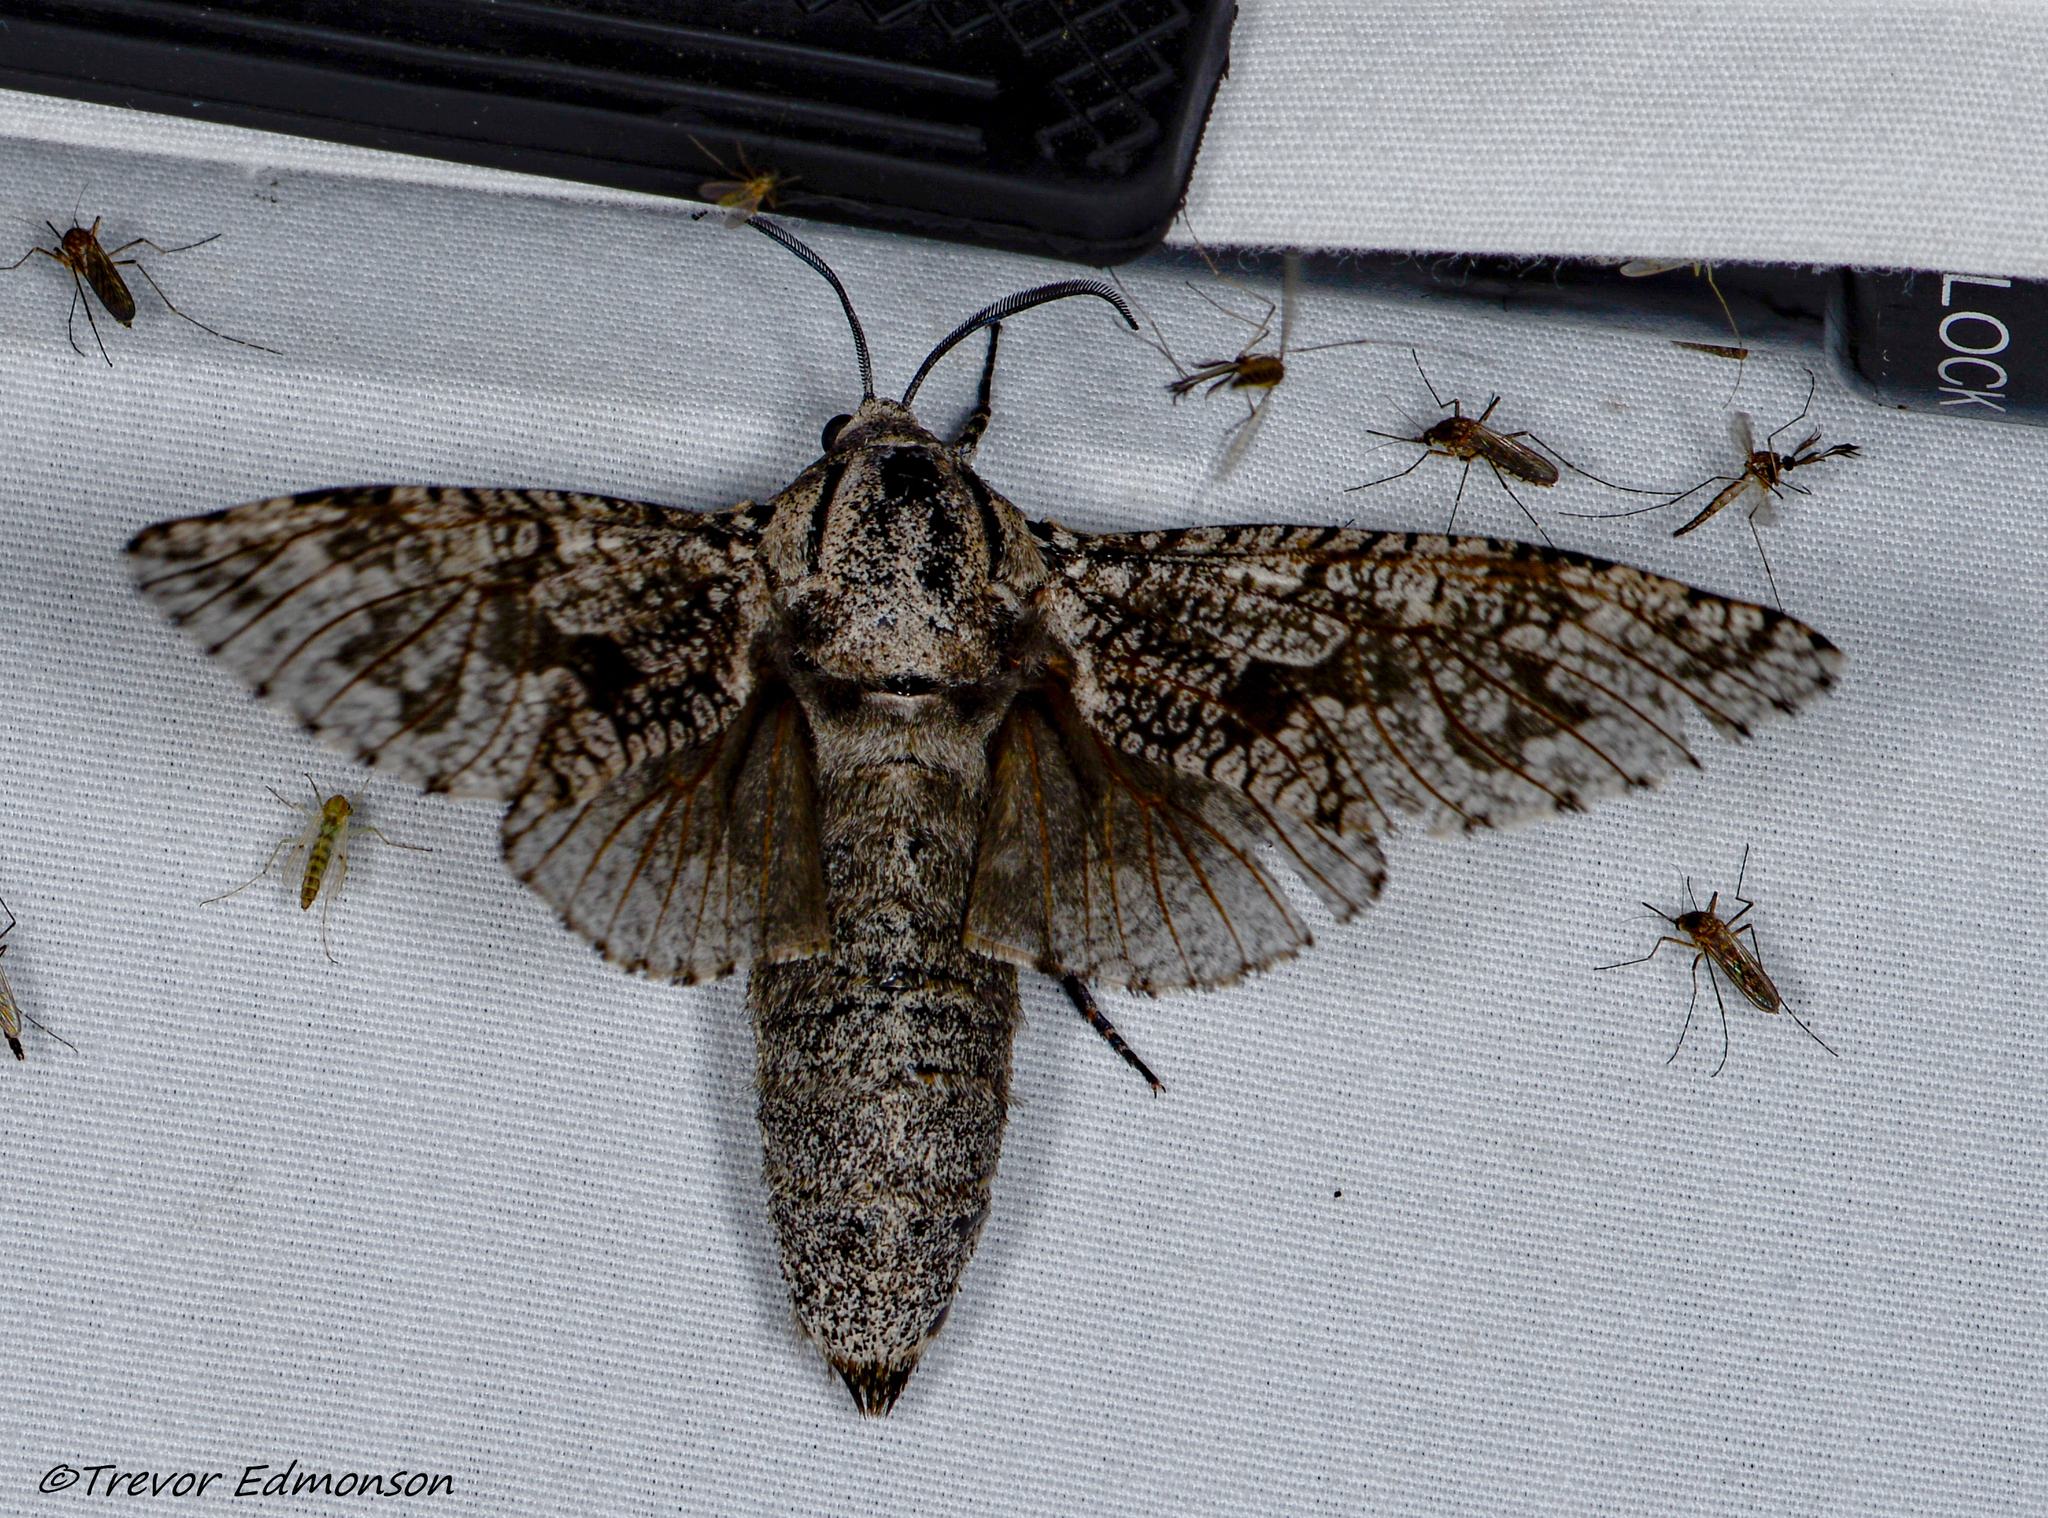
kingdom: Animalia
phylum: Arthropoda
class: Insecta
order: Lepidoptera
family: Cossidae
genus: Prionoxystus
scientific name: Prionoxystus robiniae
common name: Carpenterworm
